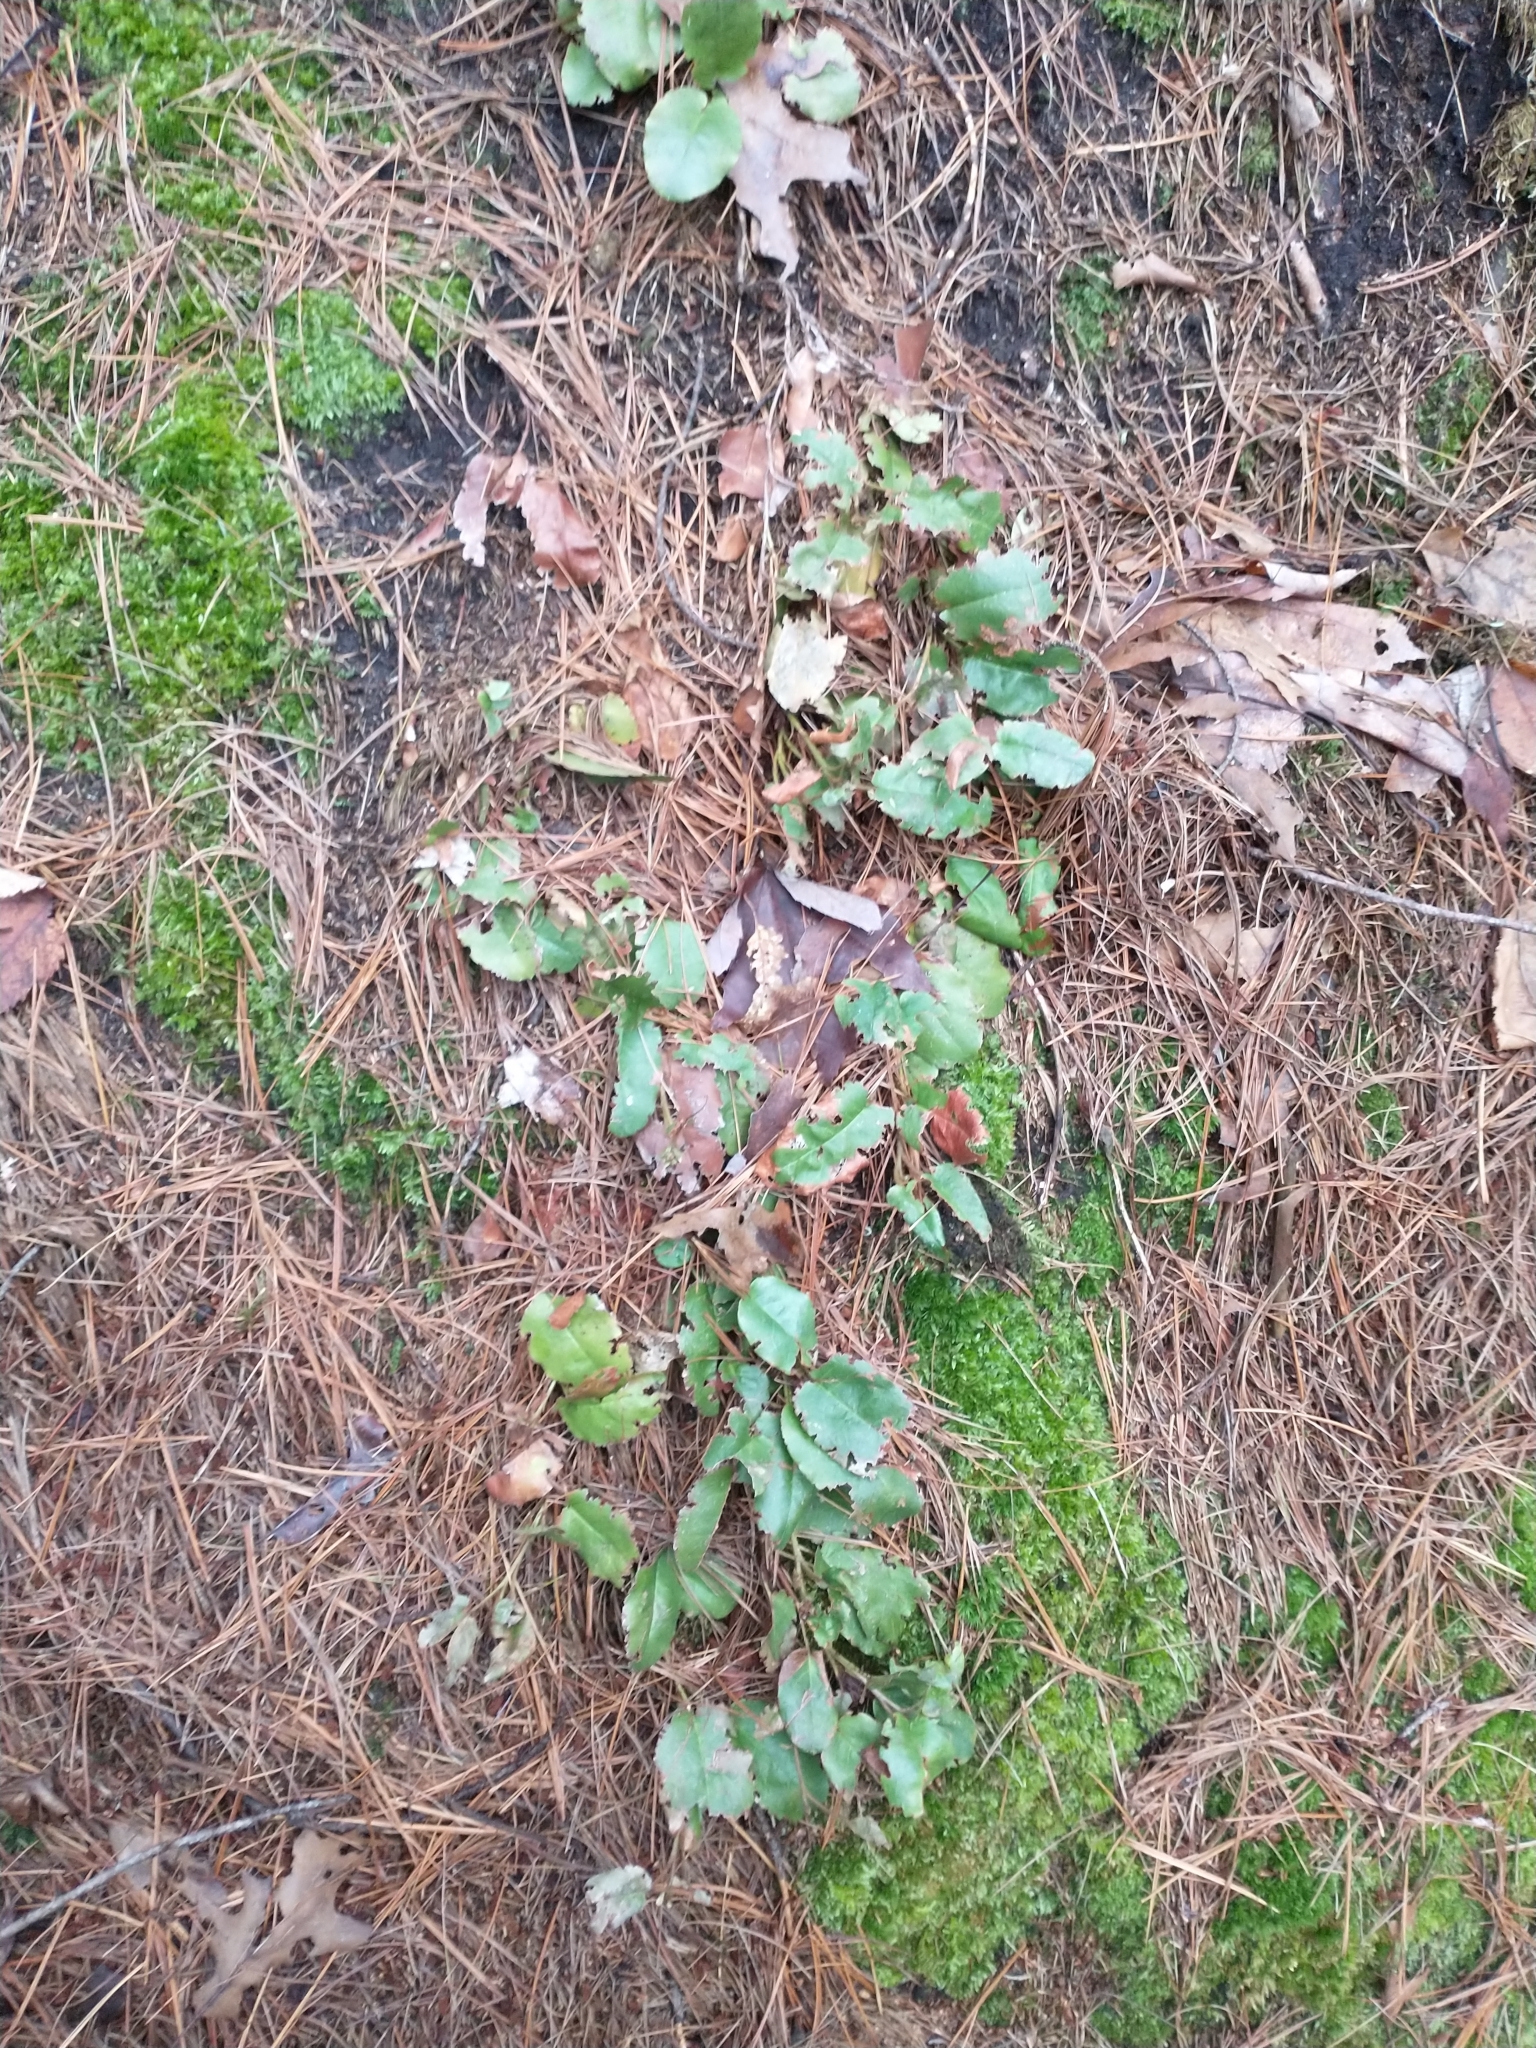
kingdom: Plantae
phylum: Tracheophyta
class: Magnoliopsida
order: Ericales
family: Ericaceae
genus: Epigaea
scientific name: Epigaea repens
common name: Gravelroot
